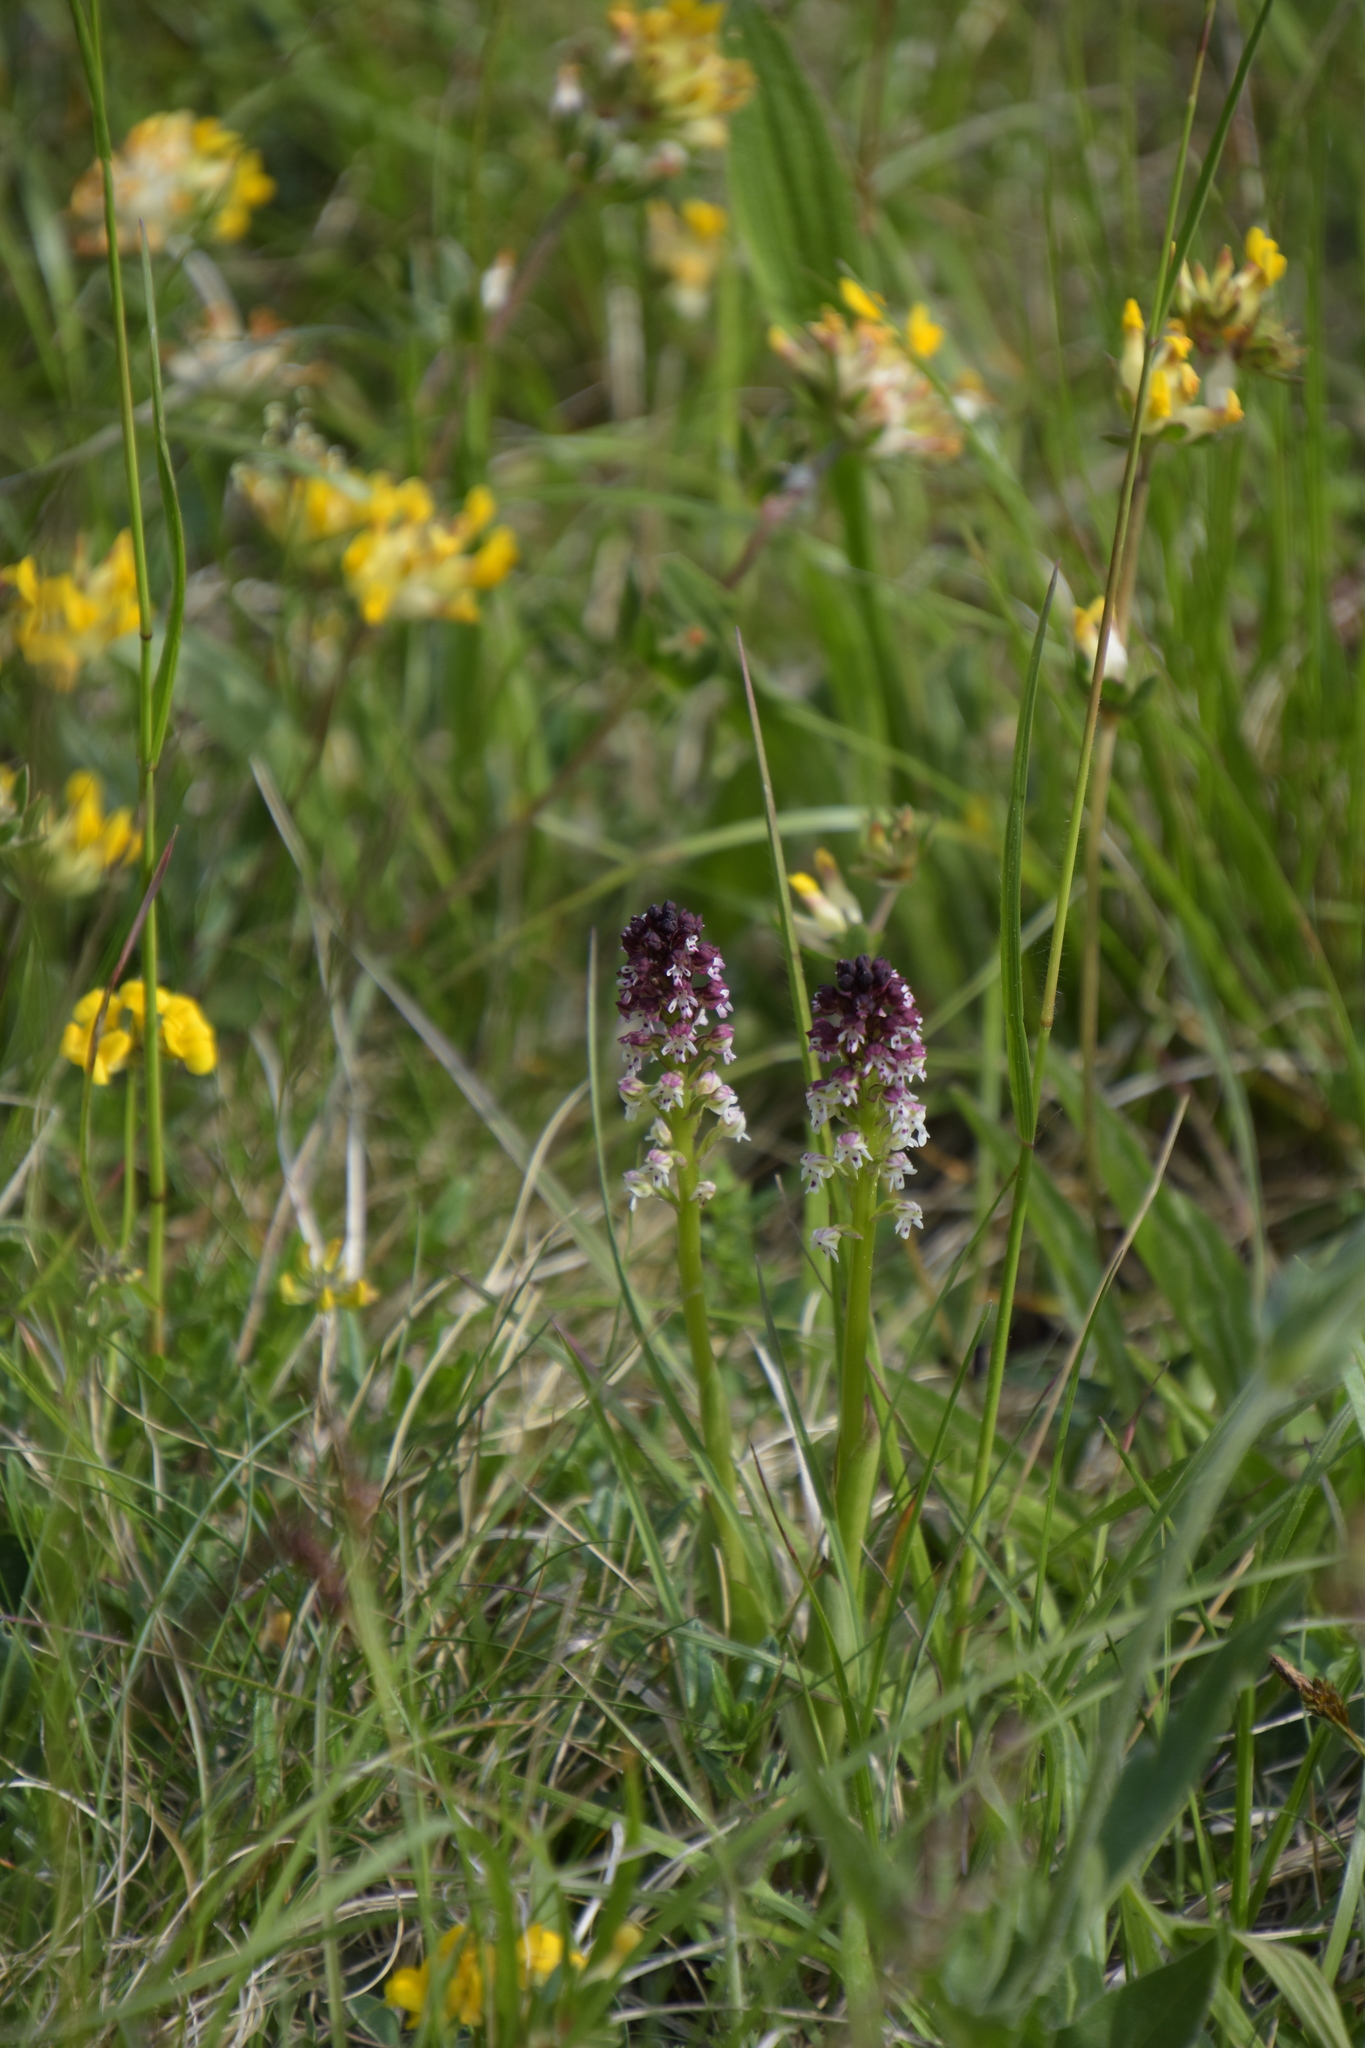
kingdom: Plantae
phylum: Tracheophyta
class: Liliopsida
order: Asparagales
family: Orchidaceae
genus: Neotinea
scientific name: Neotinea ustulata
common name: Burnt orchid
